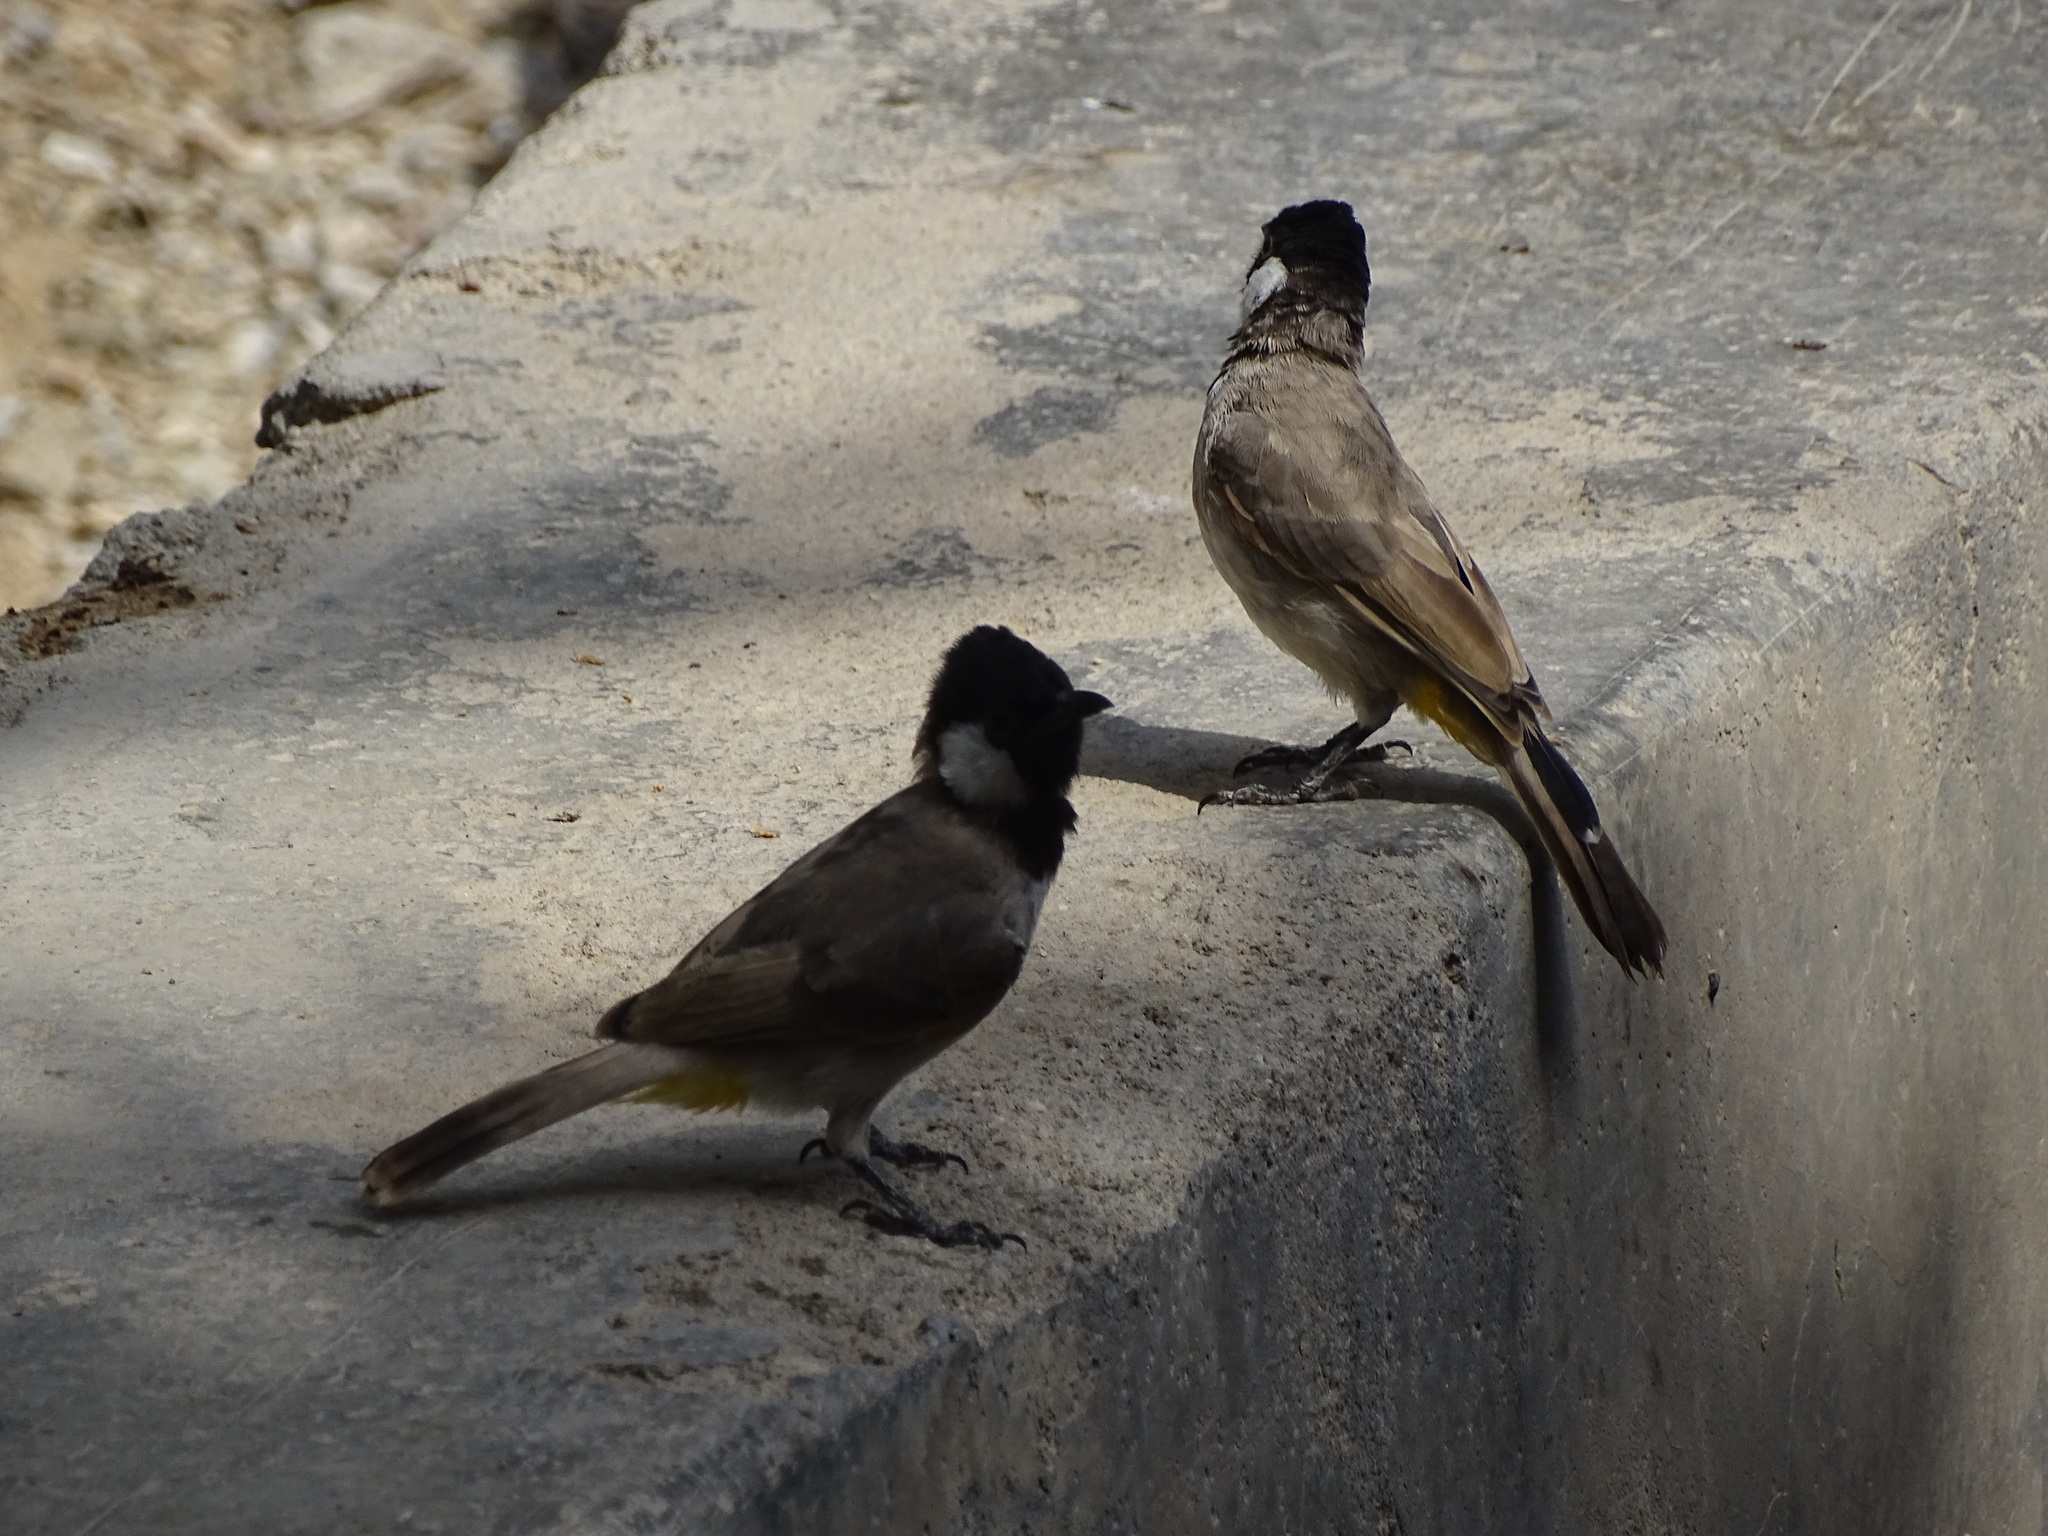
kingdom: Animalia
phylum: Chordata
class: Aves
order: Passeriformes
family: Pycnonotidae
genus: Pycnonotus
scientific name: Pycnonotus leucotis
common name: White-eared bulbul
